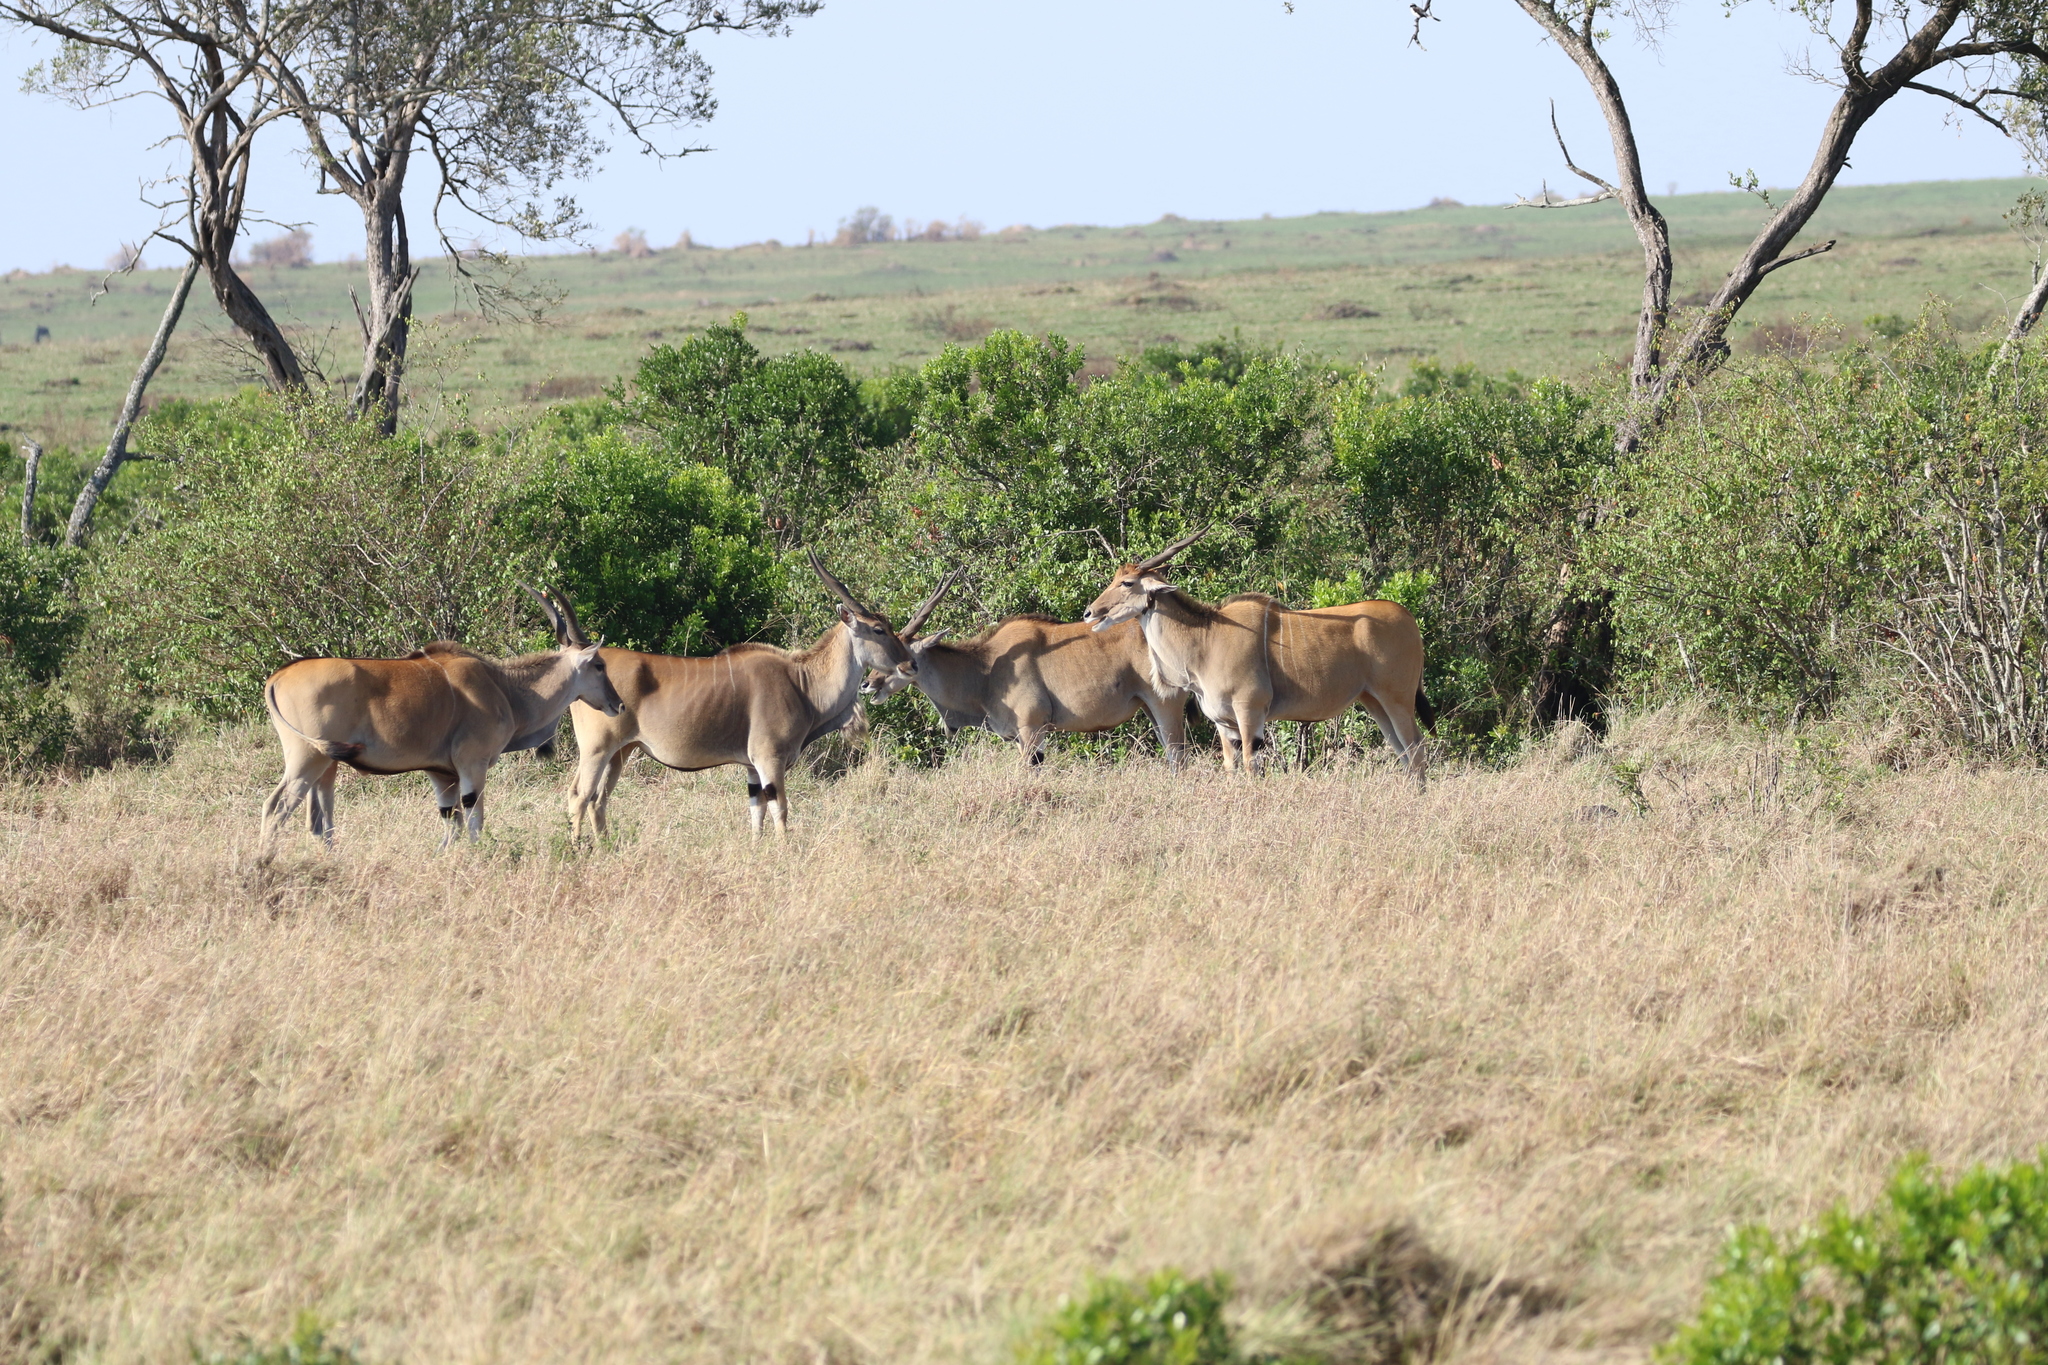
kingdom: Animalia
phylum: Chordata
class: Mammalia
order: Artiodactyla
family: Bovidae
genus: Taurotragus
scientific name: Taurotragus oryx
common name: Common eland
